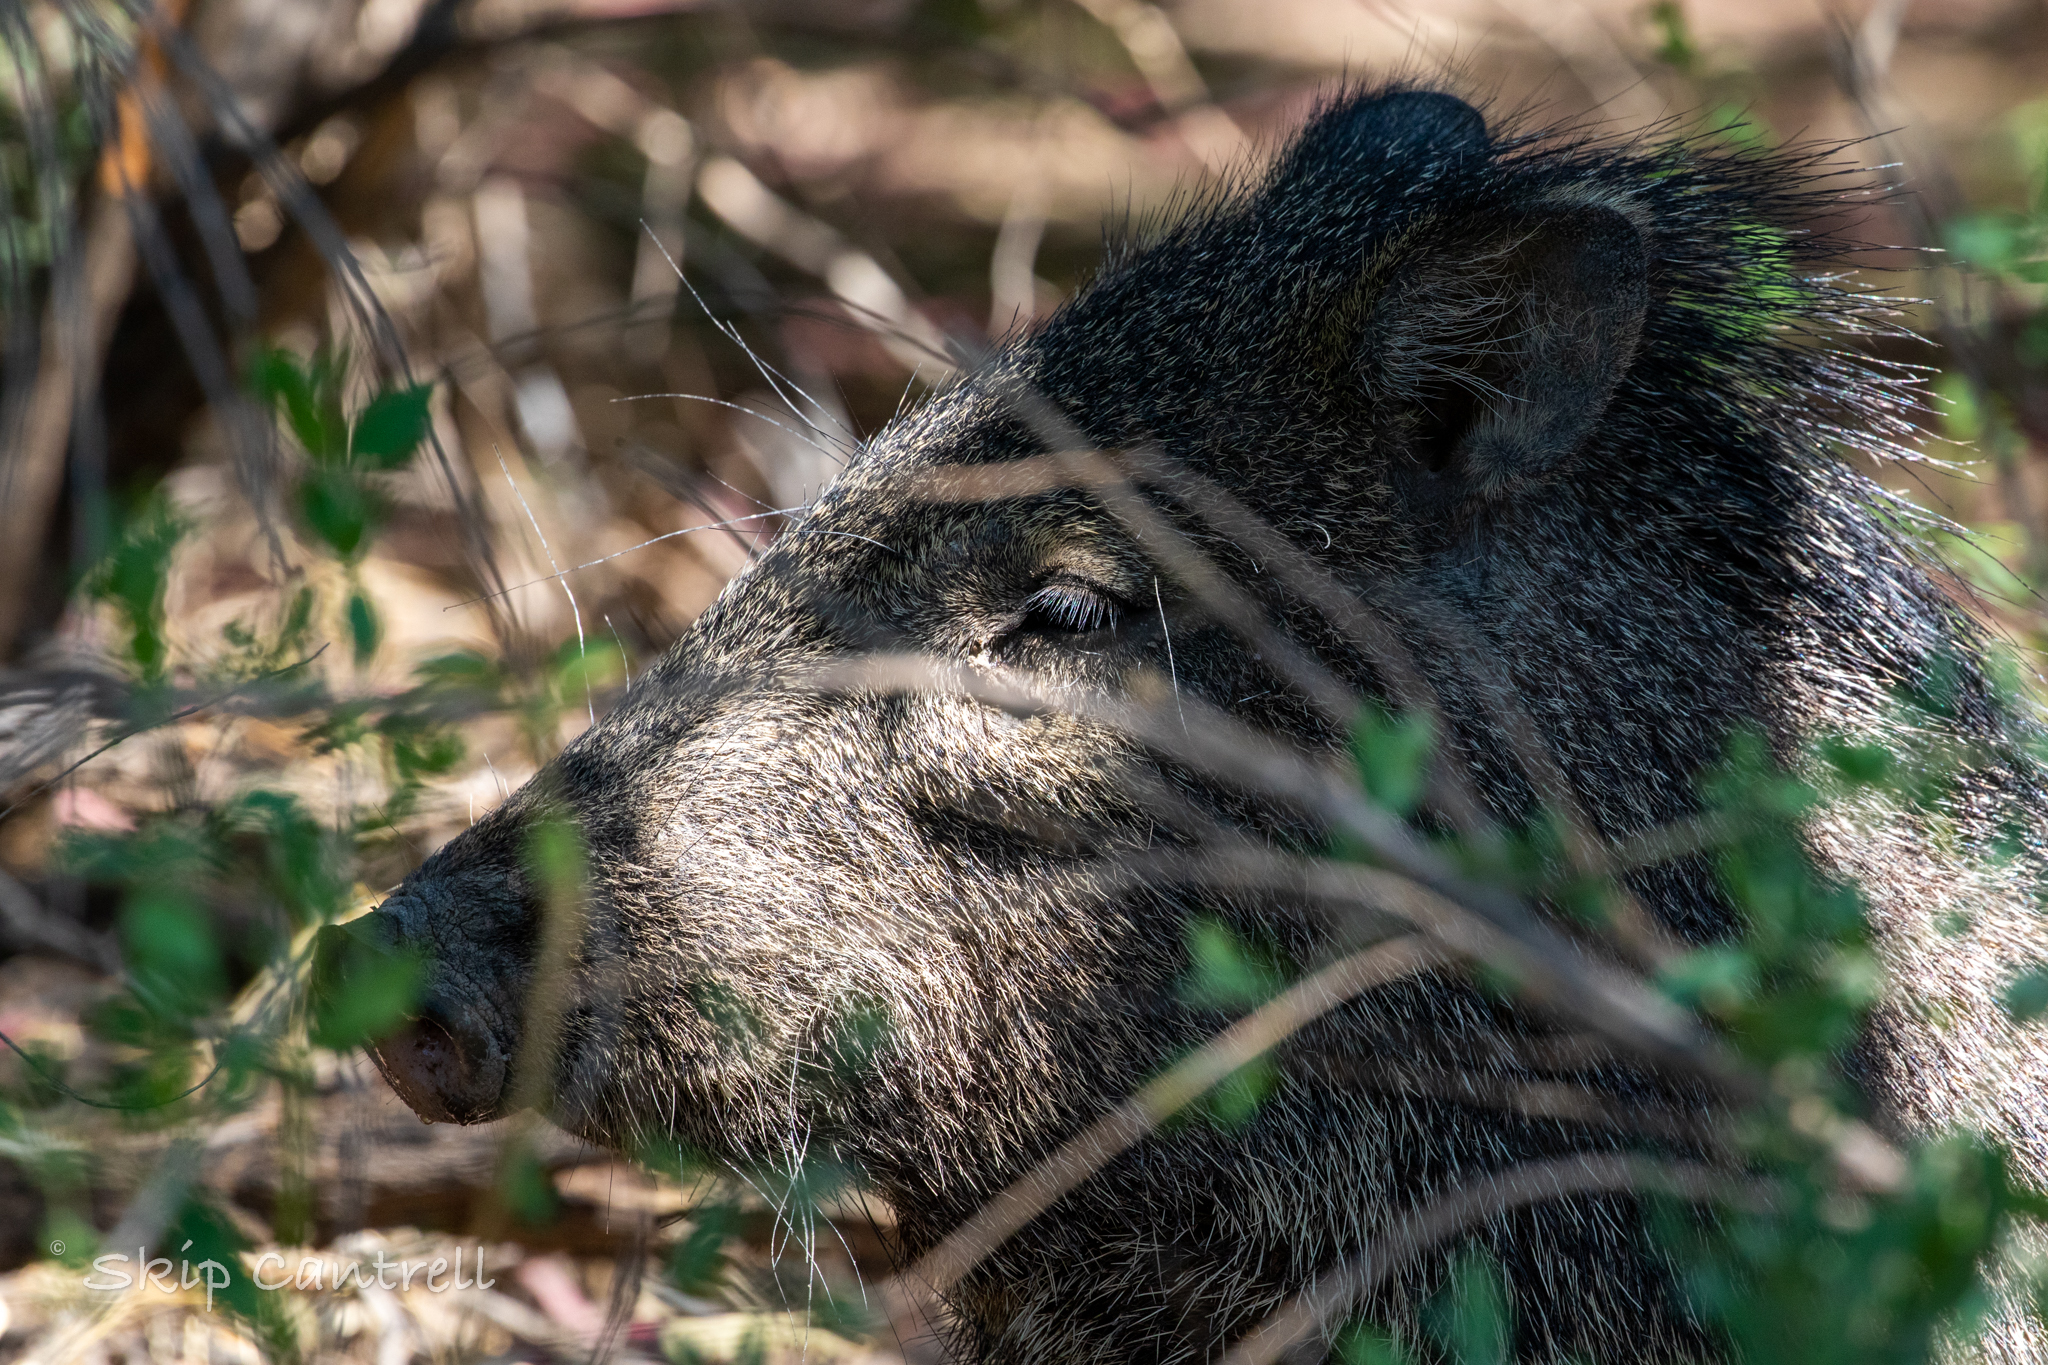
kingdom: Animalia
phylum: Chordata
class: Mammalia
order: Artiodactyla
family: Tayassuidae
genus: Pecari
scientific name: Pecari tajacu
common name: Collared peccary
